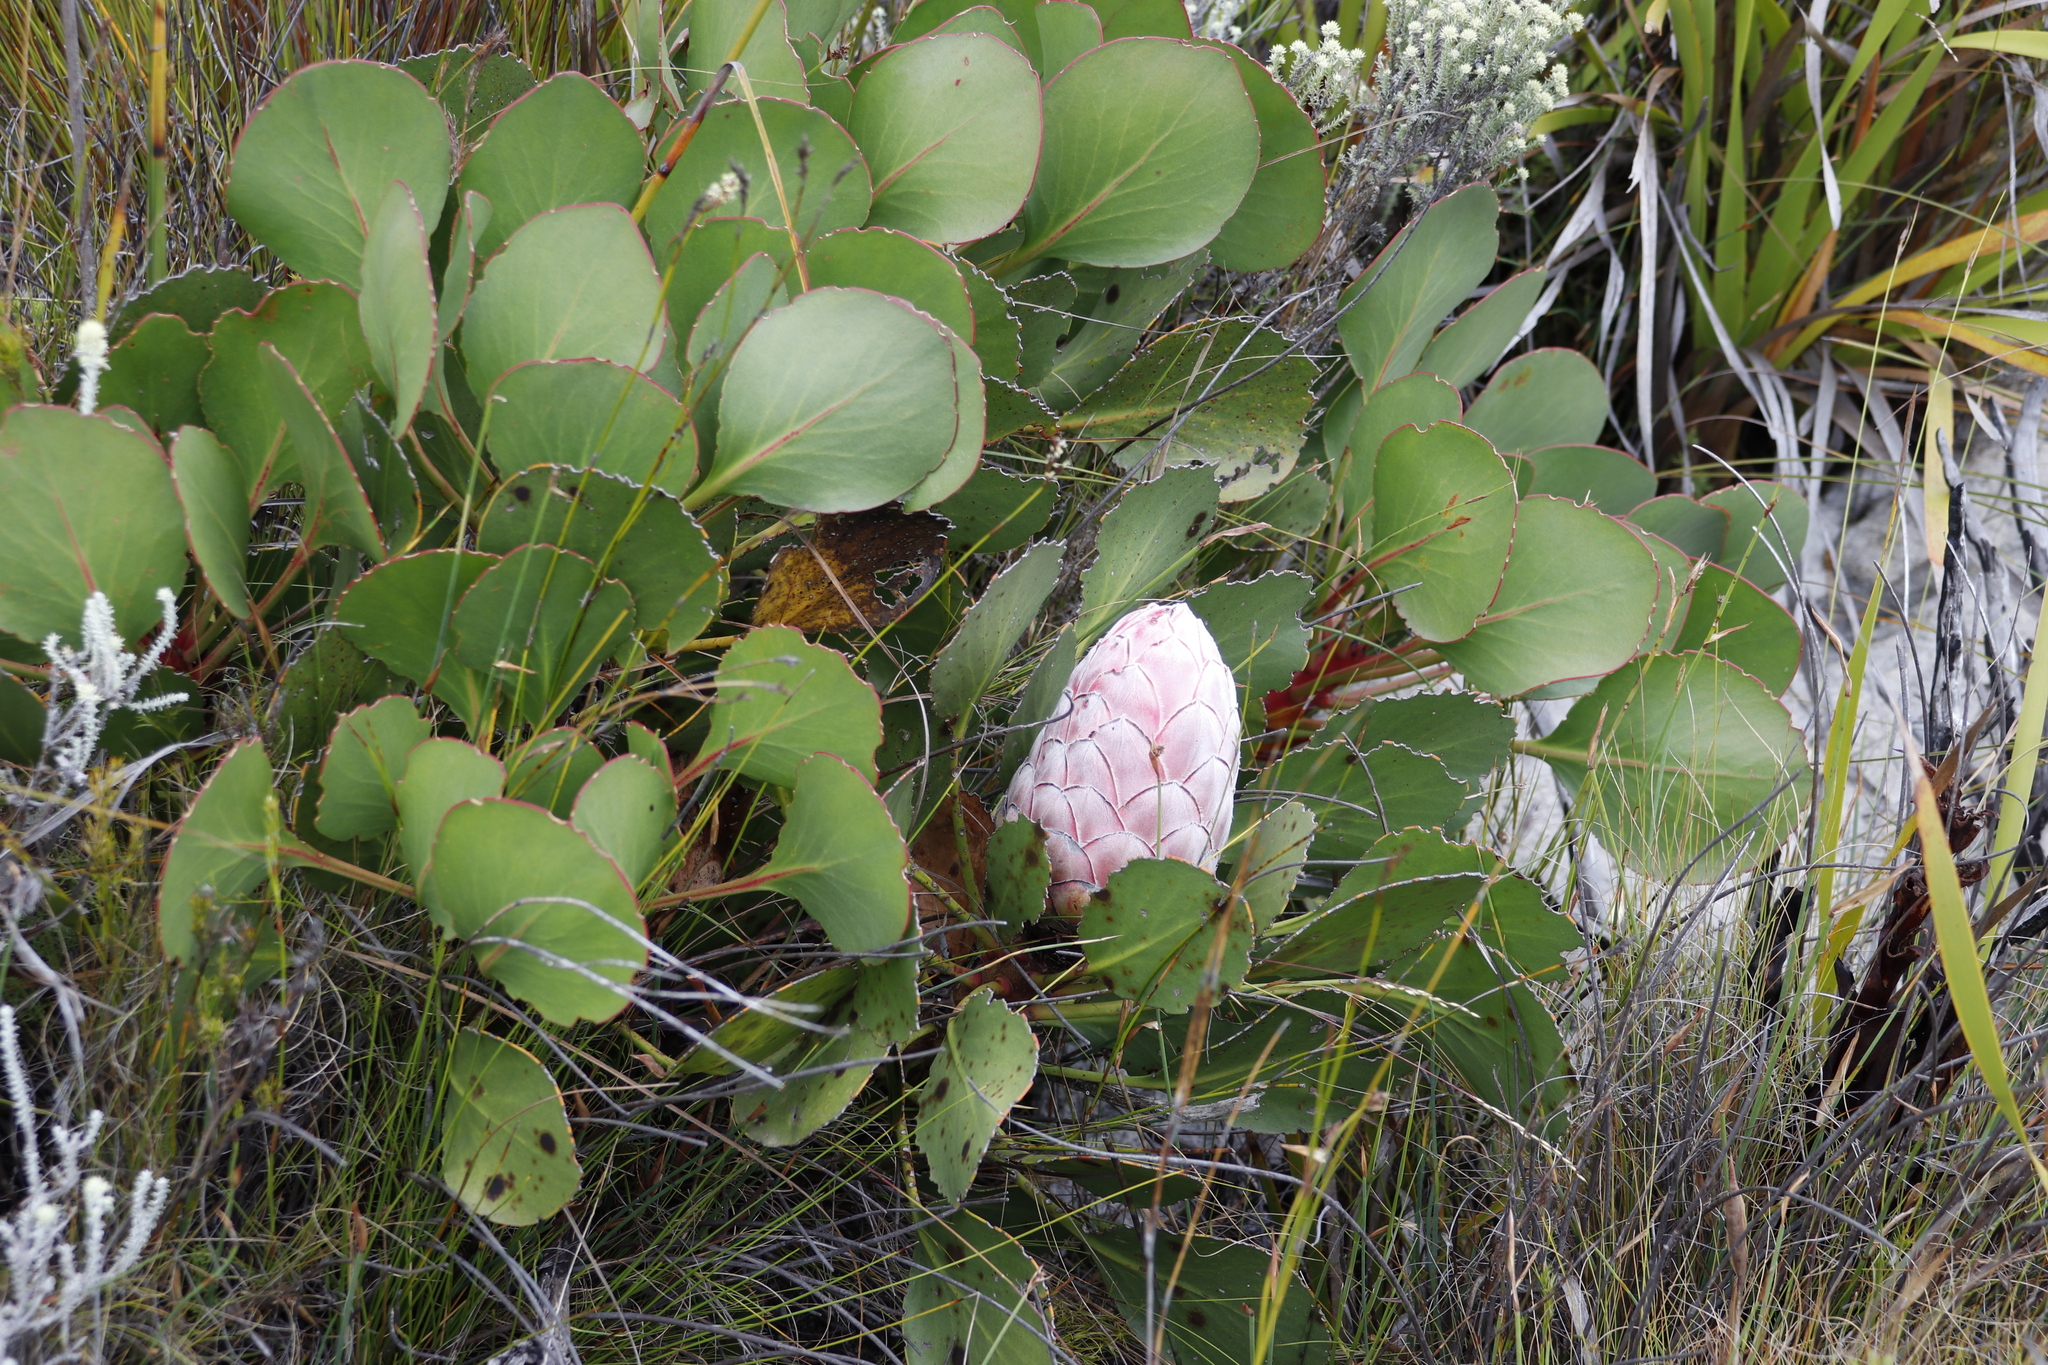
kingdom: Plantae
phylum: Tracheophyta
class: Magnoliopsida
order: Proteales
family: Proteaceae
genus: Protea
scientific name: Protea cynaroides
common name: King protea
